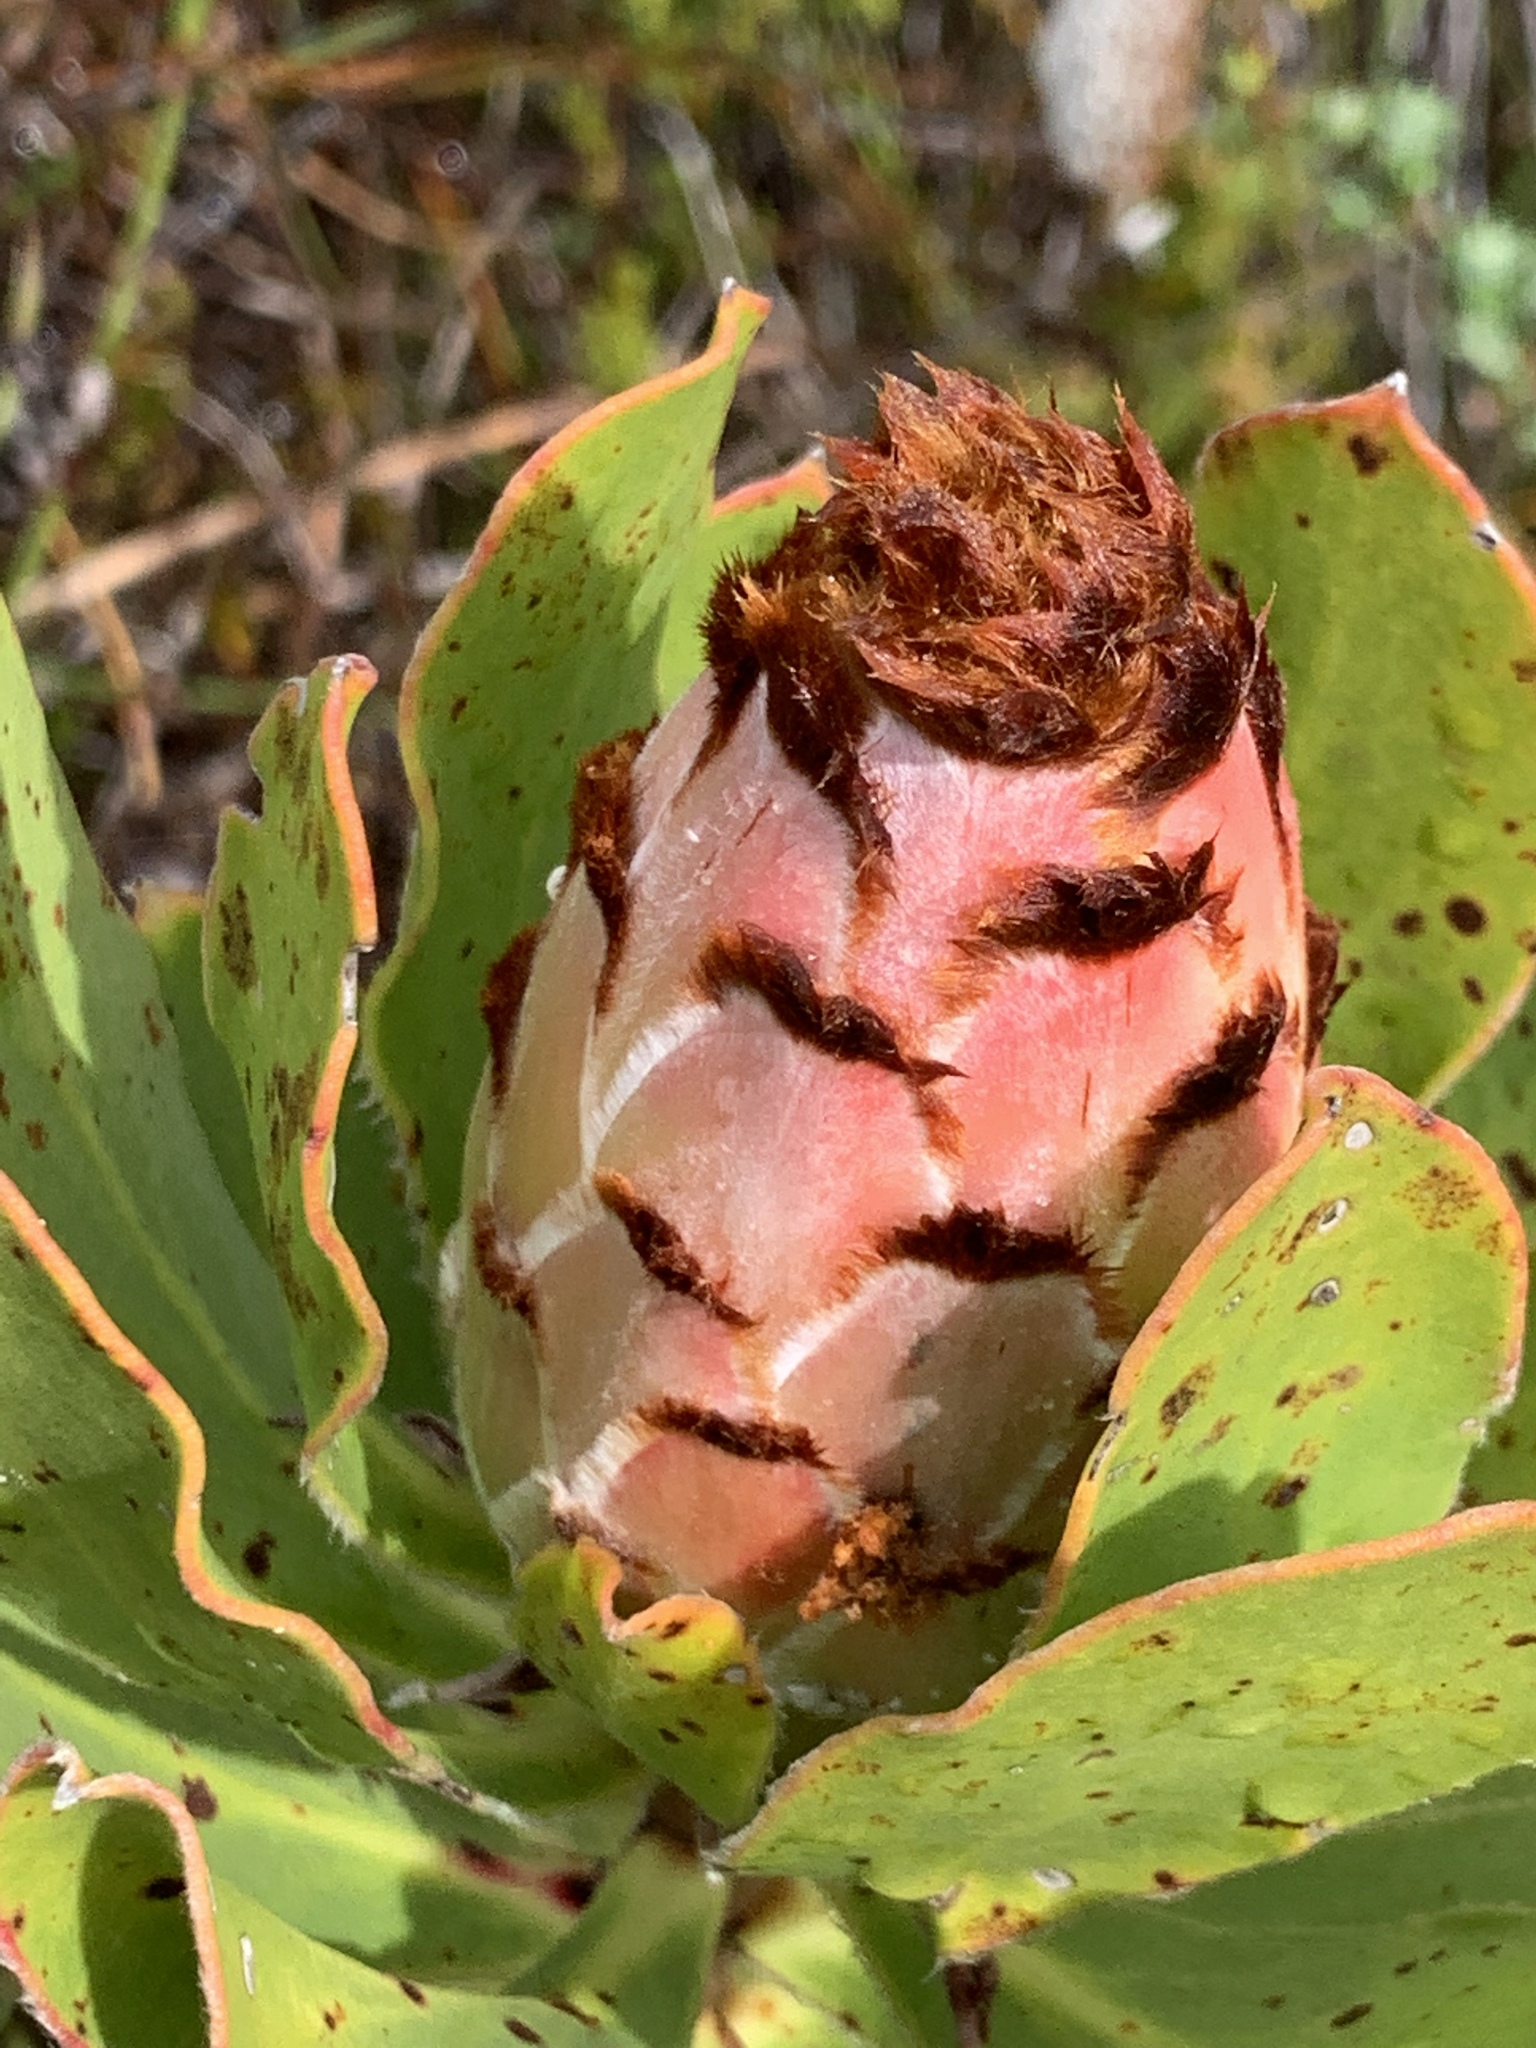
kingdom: Plantae
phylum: Tracheophyta
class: Magnoliopsida
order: Proteales
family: Proteaceae
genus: Protea
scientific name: Protea speciosa
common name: Brown-beard sugarbush
